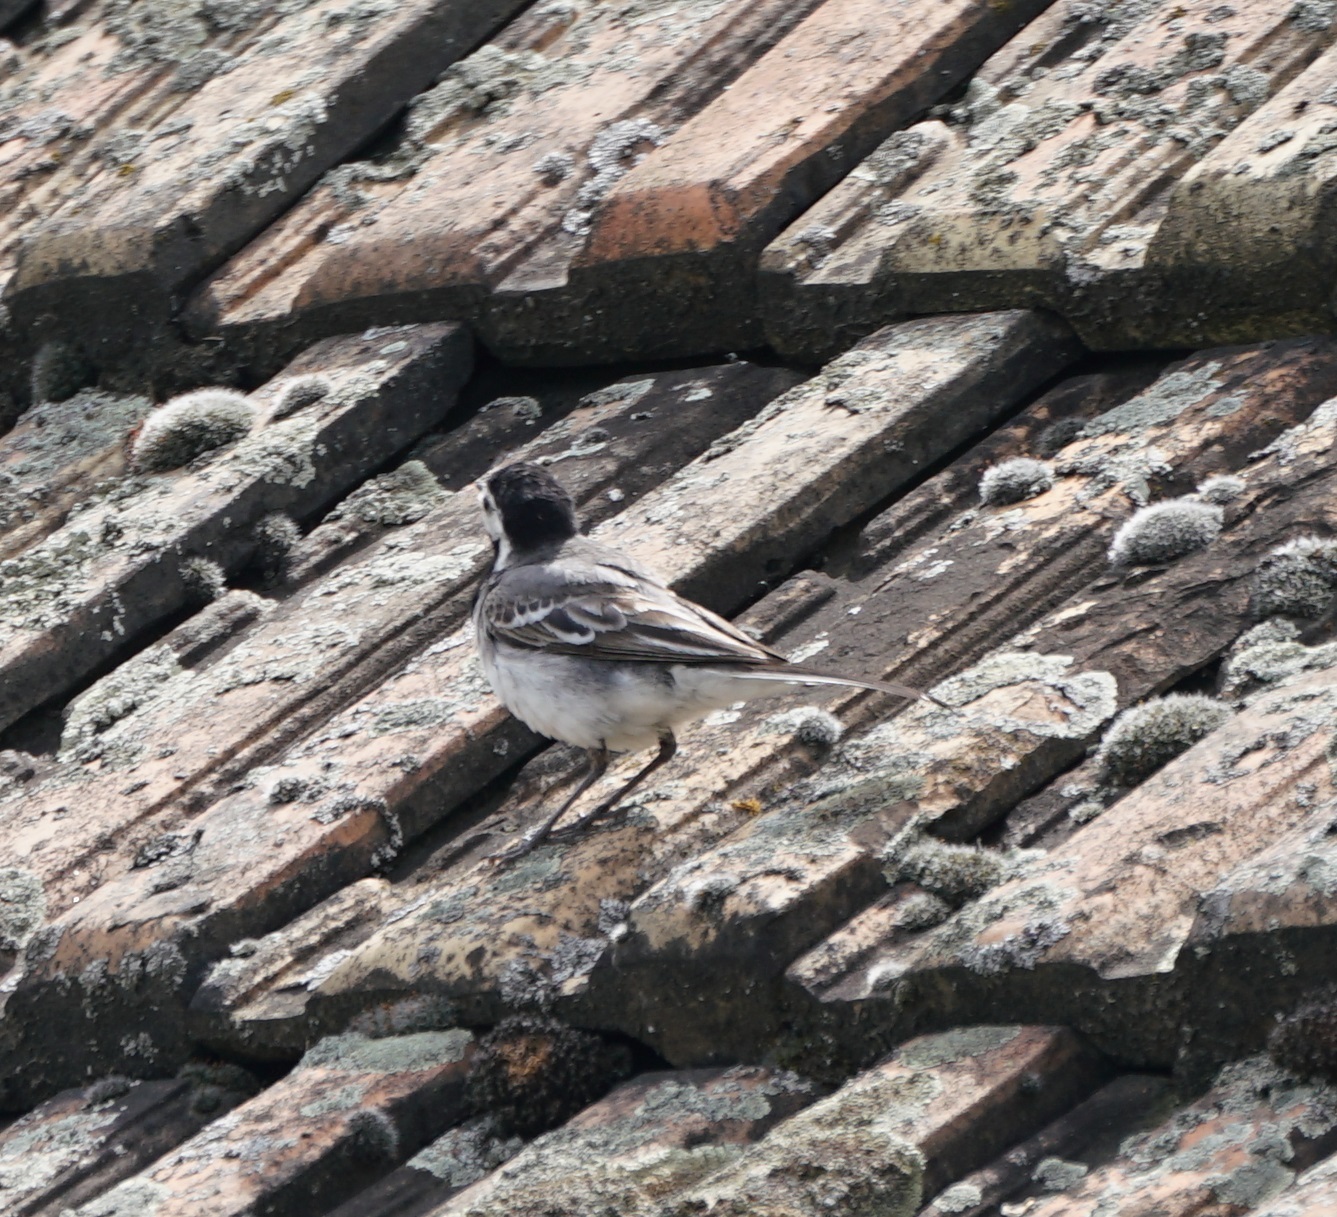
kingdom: Animalia
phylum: Chordata
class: Aves
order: Passeriformes
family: Motacillidae
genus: Motacilla
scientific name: Motacilla alba
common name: White wagtail
